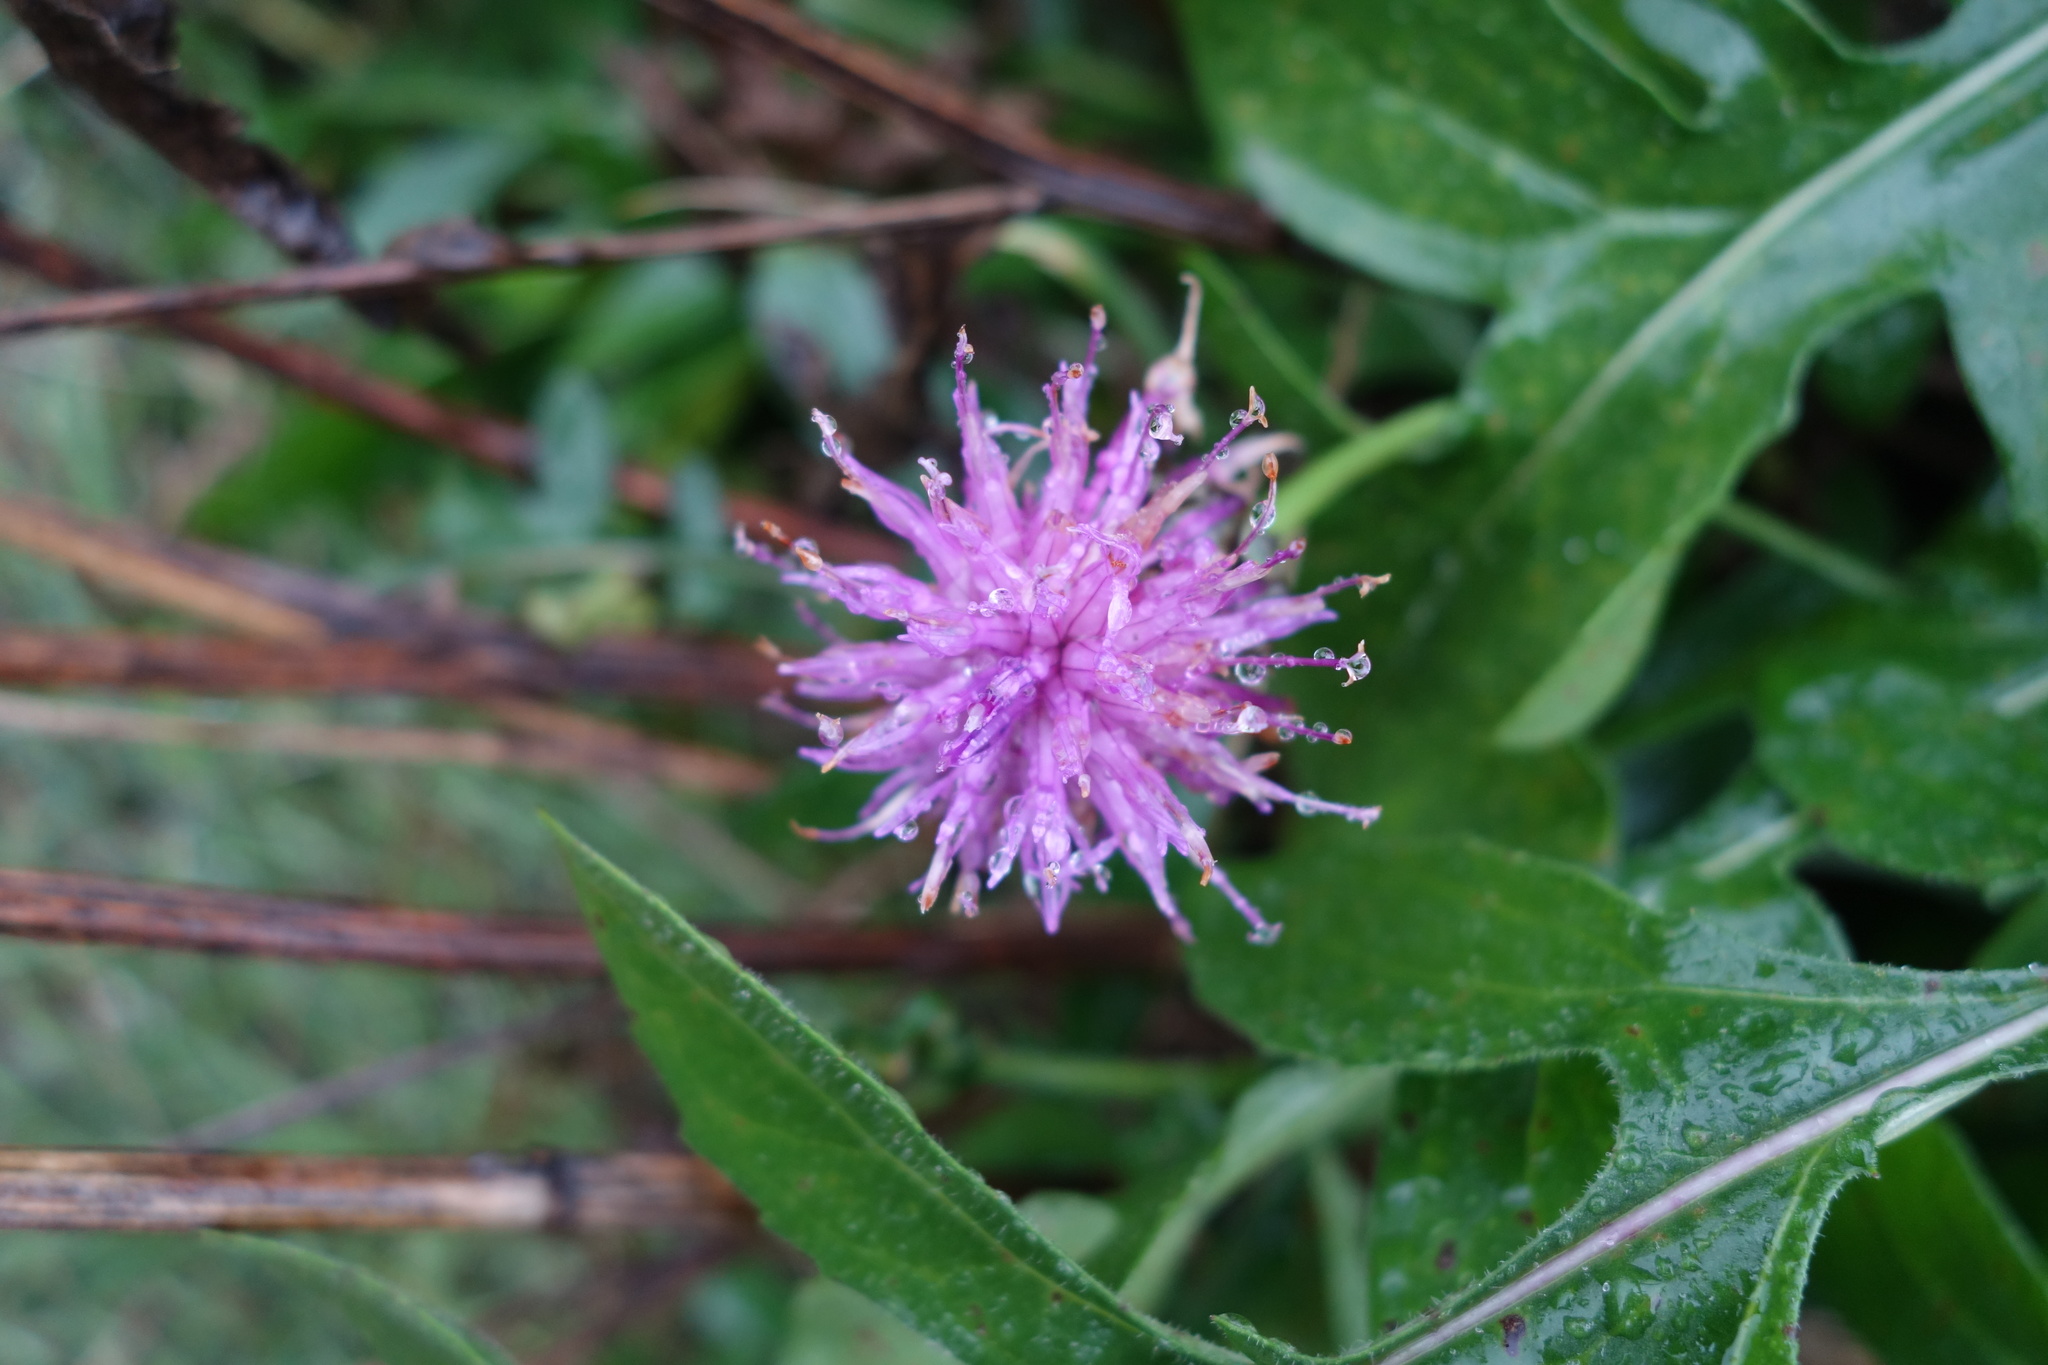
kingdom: Plantae
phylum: Tracheophyta
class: Magnoliopsida
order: Asterales
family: Asteraceae
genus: Centaurea
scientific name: Centaurea scabiosa
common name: Greater knapweed
